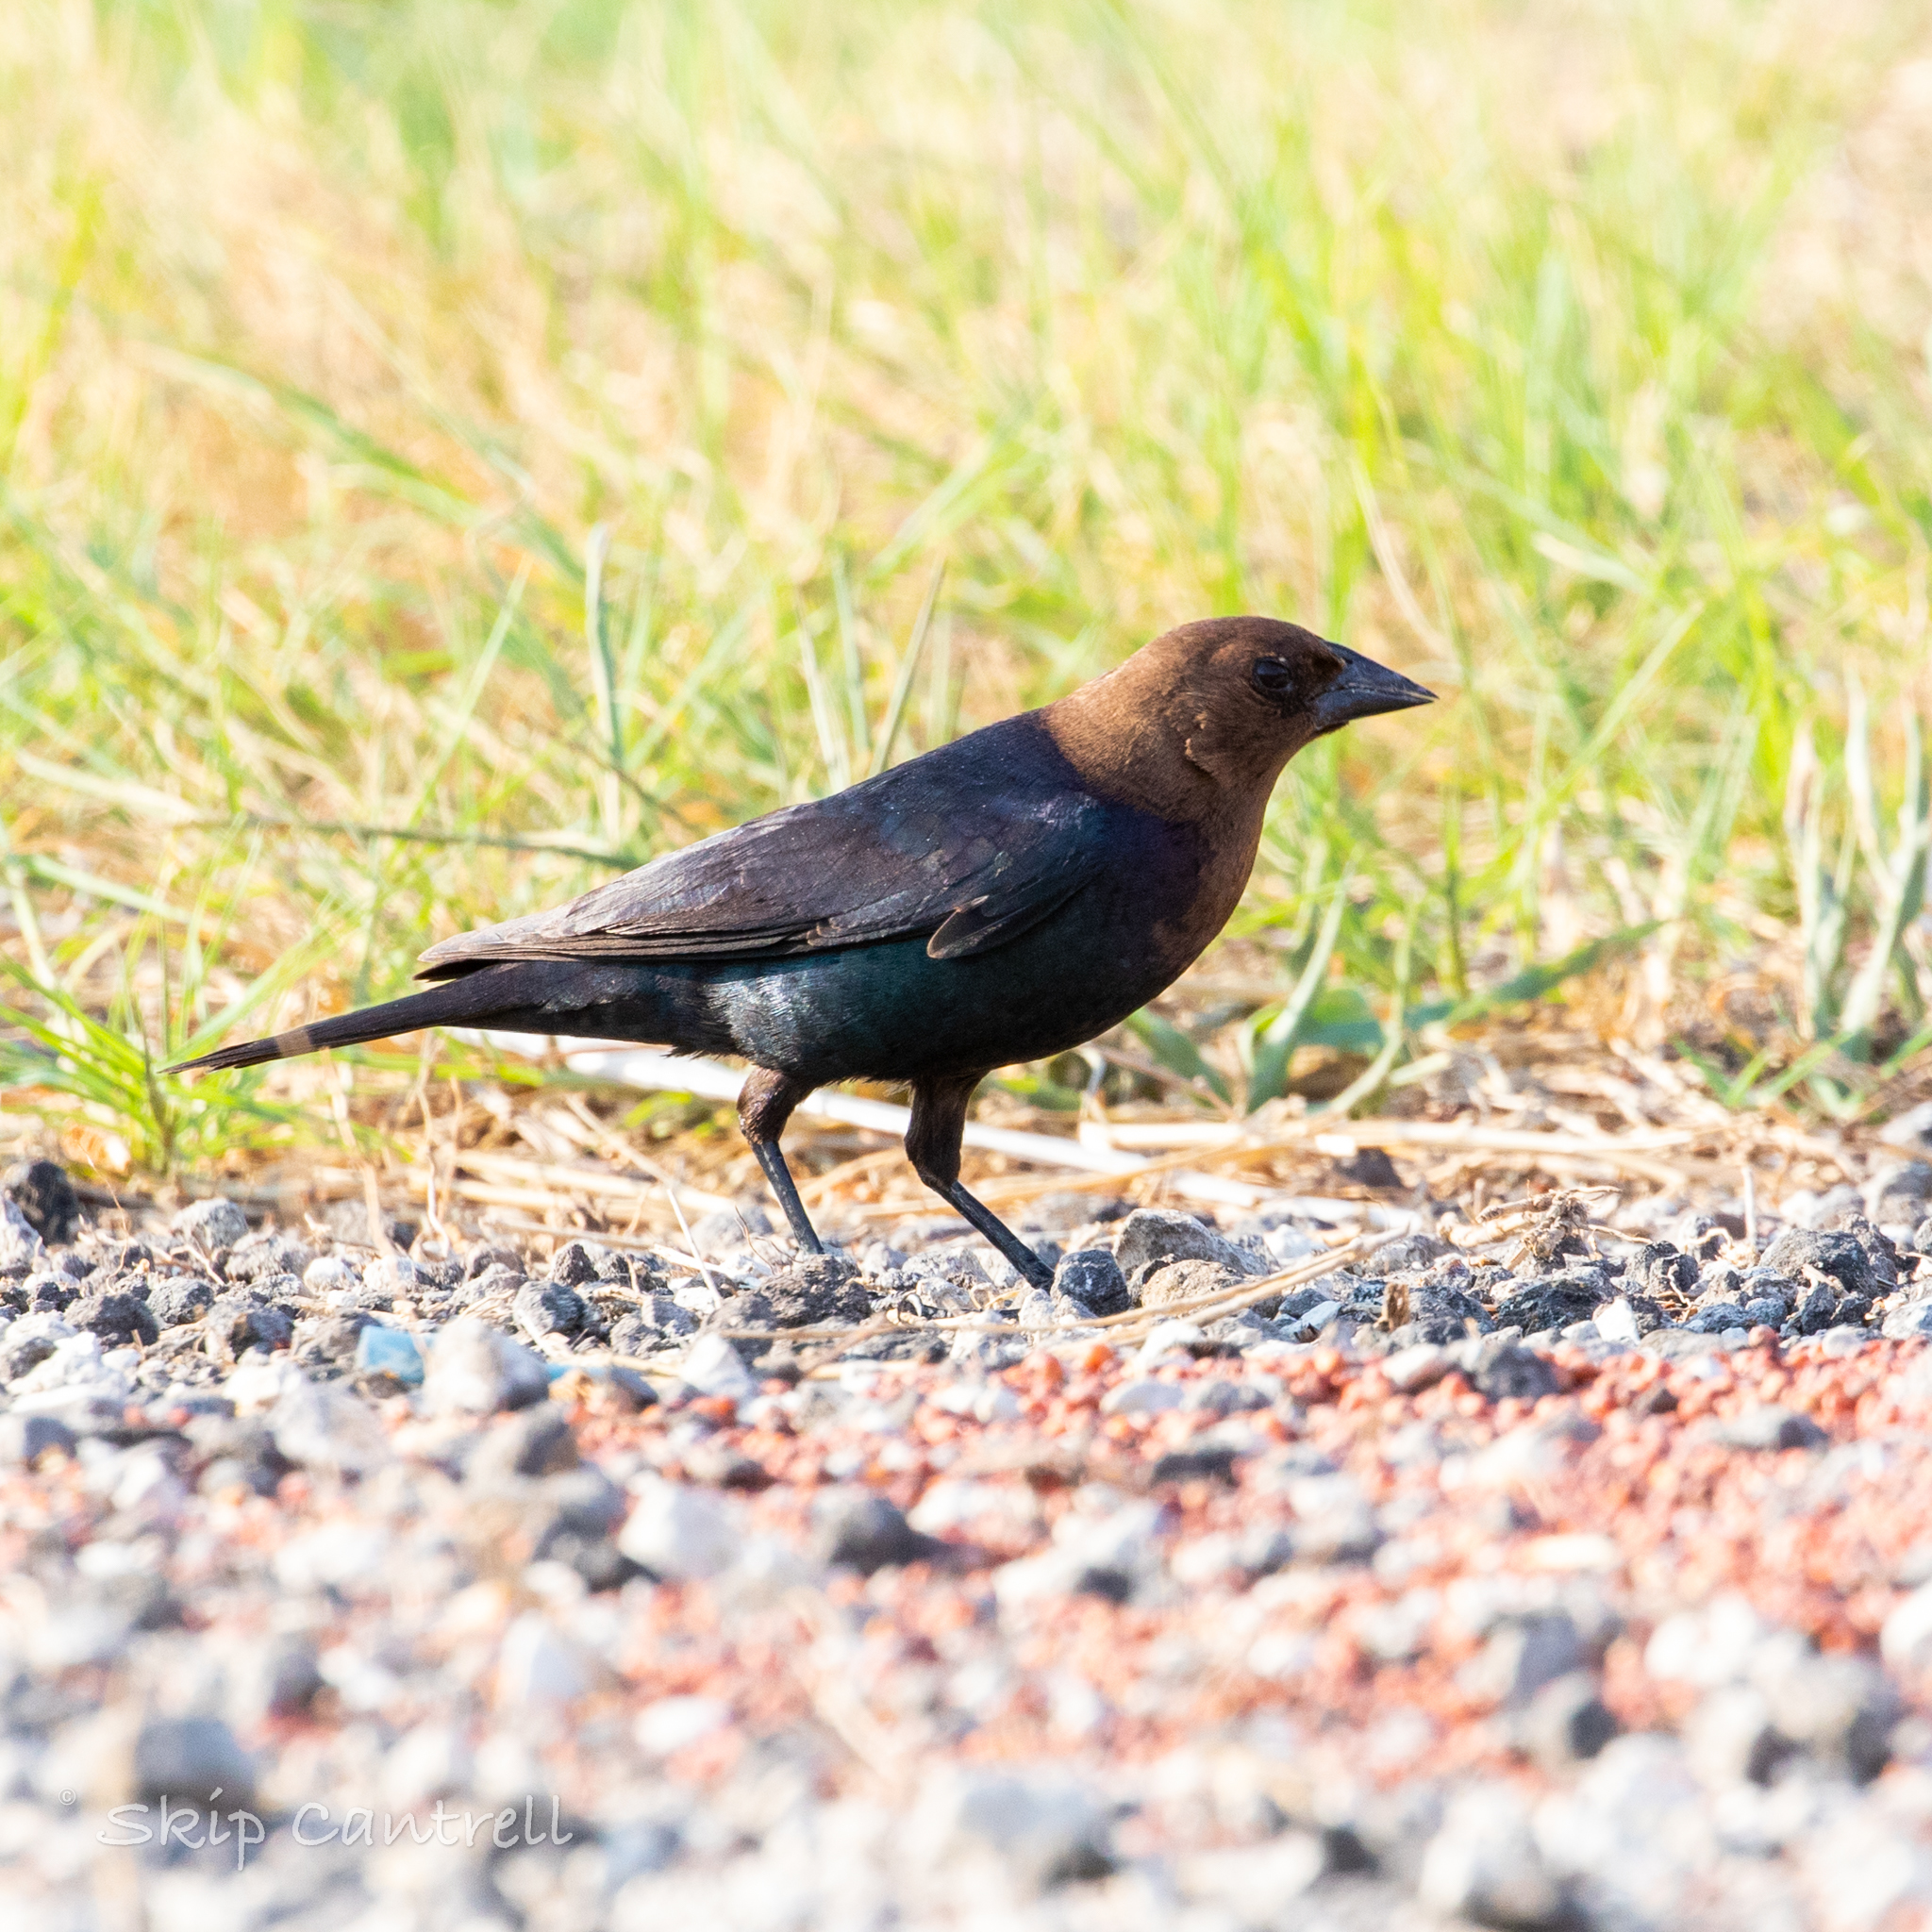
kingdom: Animalia
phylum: Chordata
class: Aves
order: Passeriformes
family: Icteridae
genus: Molothrus
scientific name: Molothrus ater
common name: Brown-headed cowbird
